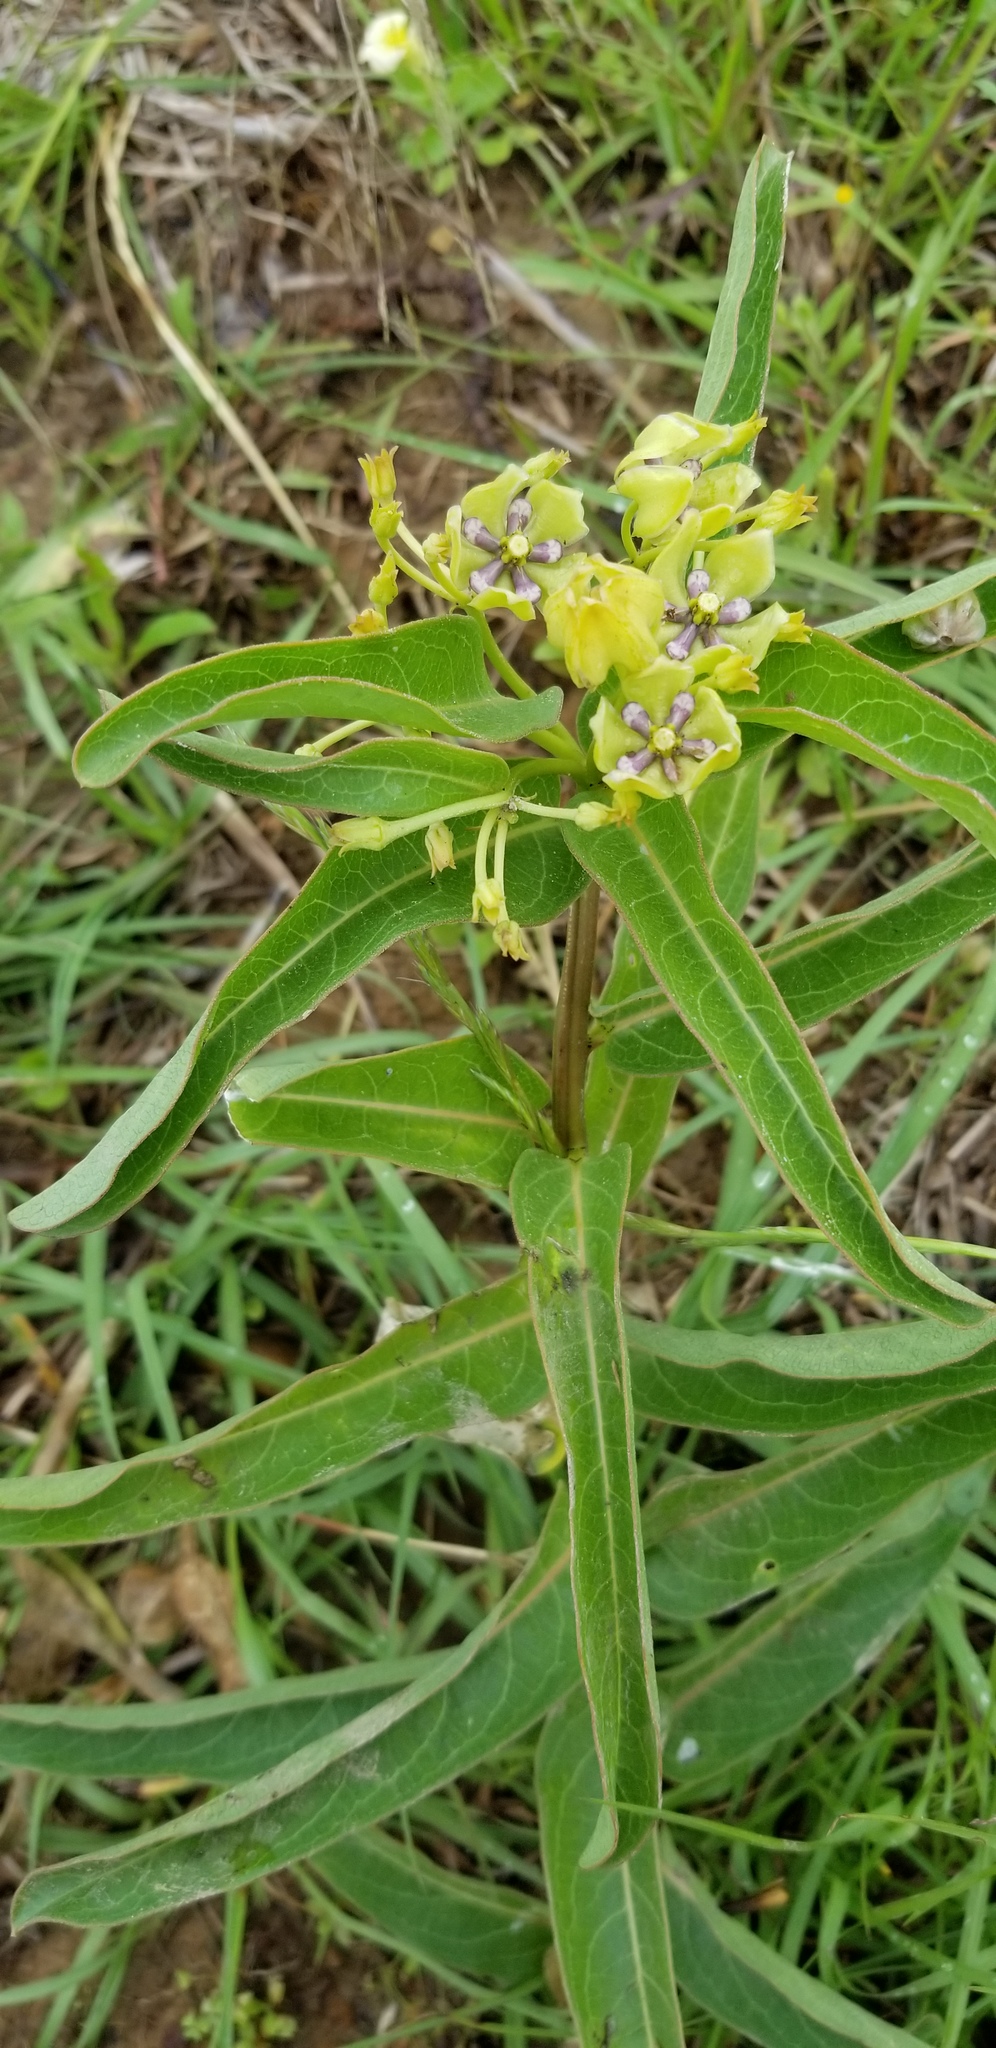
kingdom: Plantae
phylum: Tracheophyta
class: Magnoliopsida
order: Gentianales
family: Apocynaceae
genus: Asclepias
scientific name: Asclepias viridis
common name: Antelope-horns
